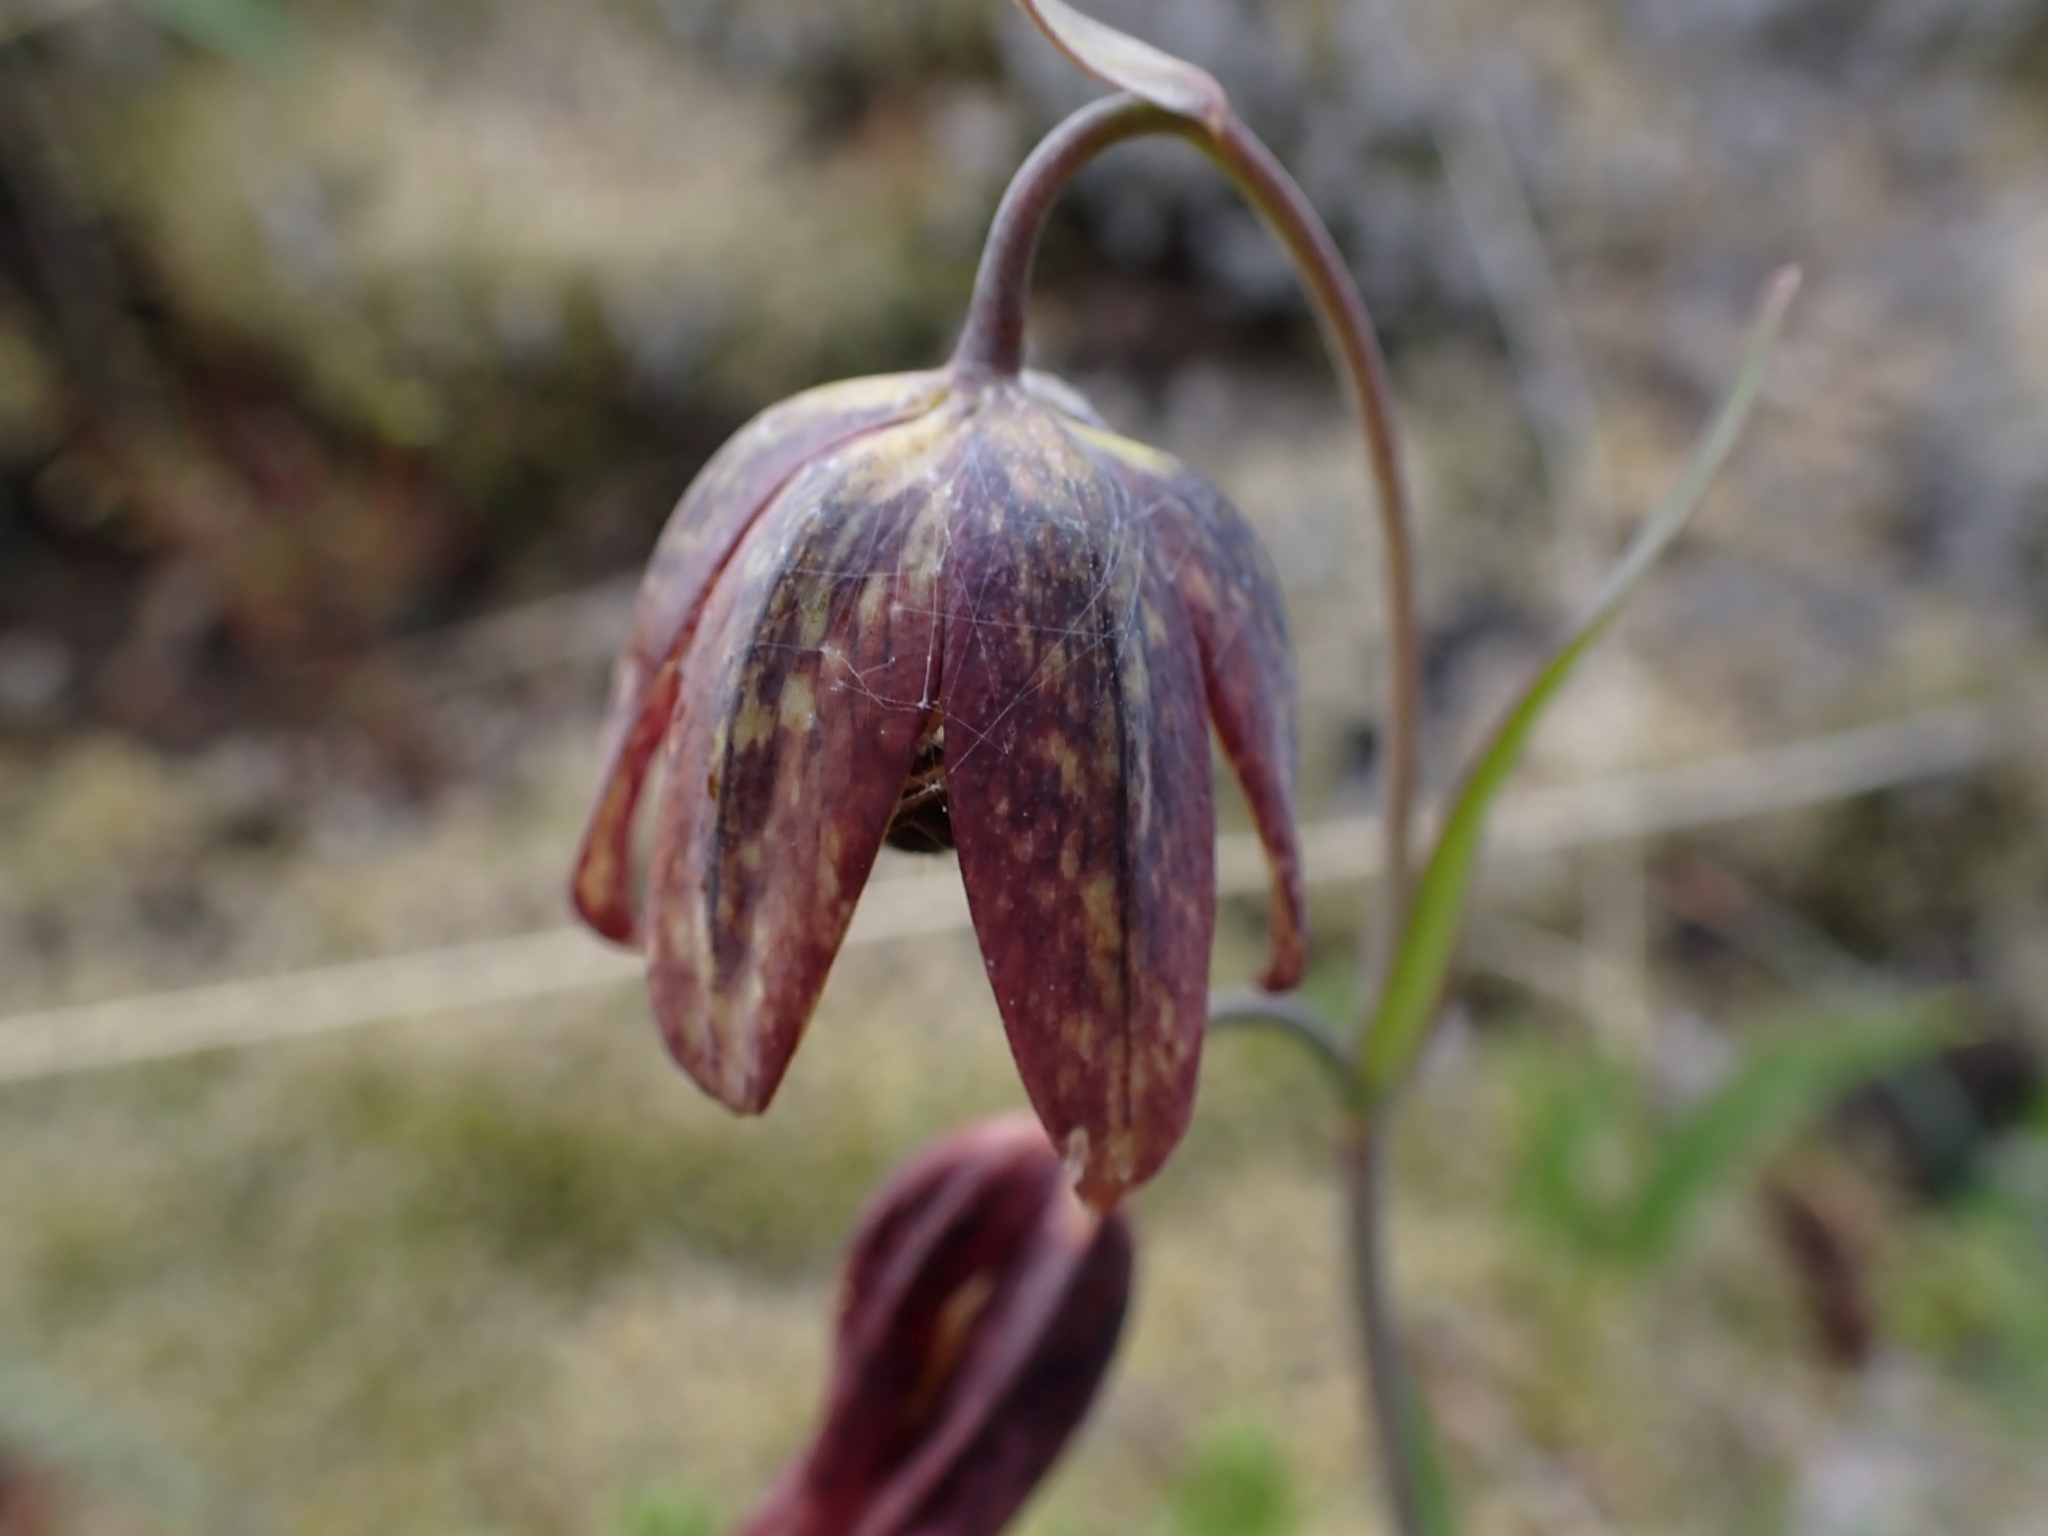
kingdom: Plantae
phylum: Tracheophyta
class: Liliopsida
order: Liliales
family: Liliaceae
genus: Fritillaria
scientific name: Fritillaria affinis
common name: Ojai fritillary
